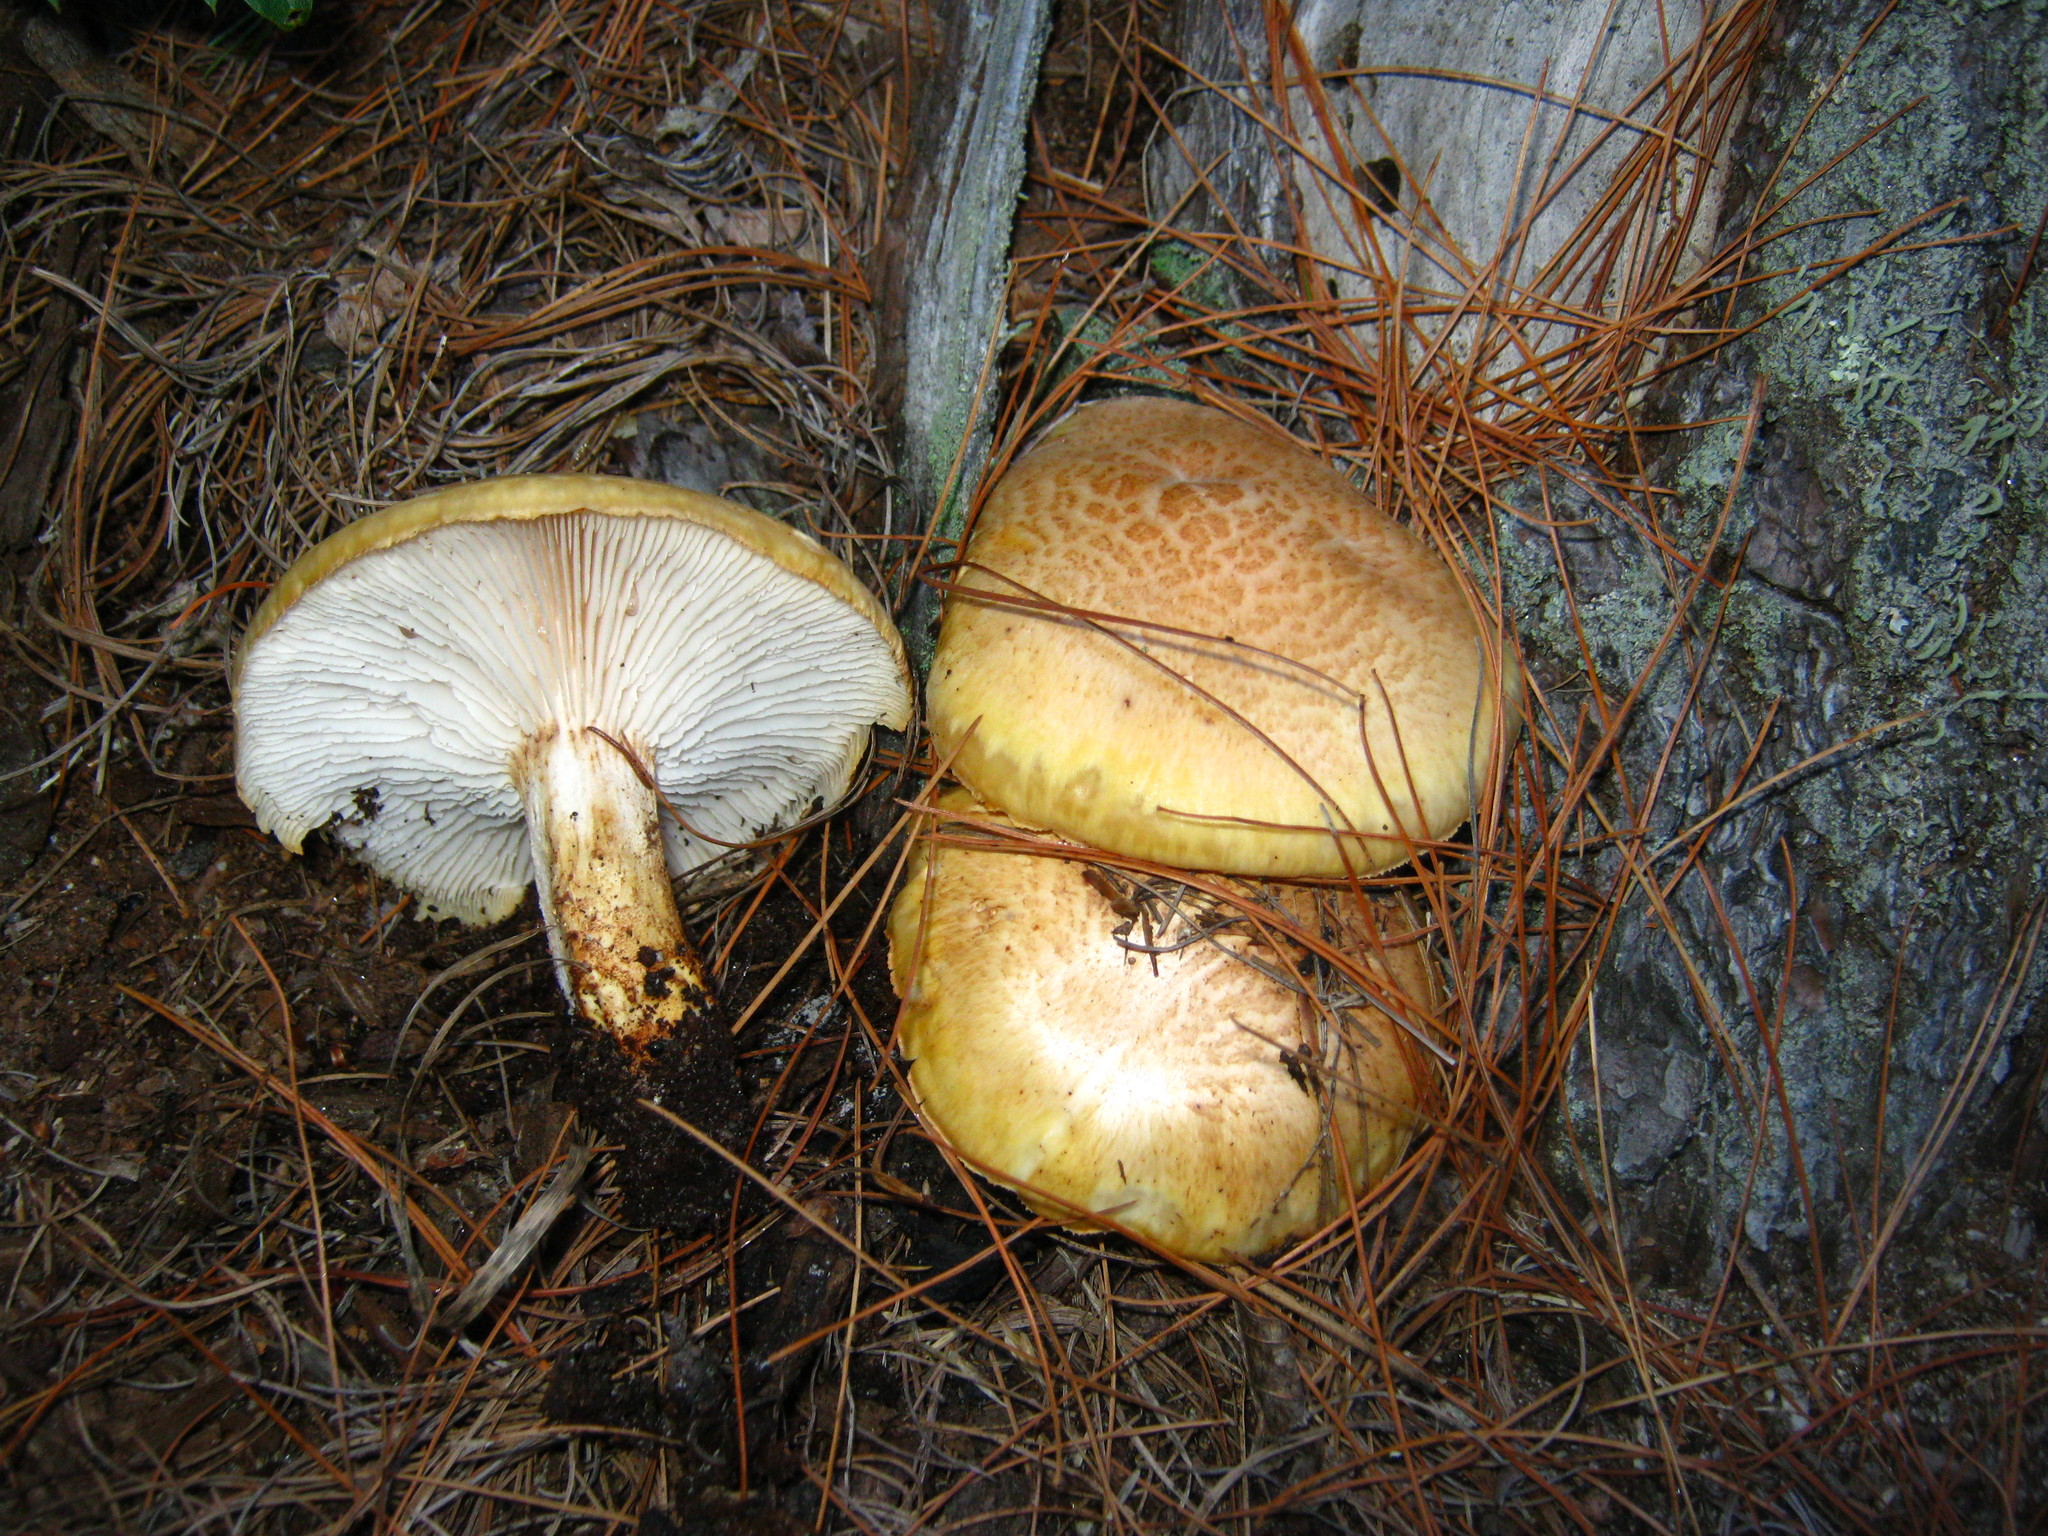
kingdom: Fungi
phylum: Basidiomycota
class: Agaricomycetes
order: Gloeophyllales
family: Gloeophyllaceae
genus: Neolentinus
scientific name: Neolentinus lepideus
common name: Scaly sawgill
